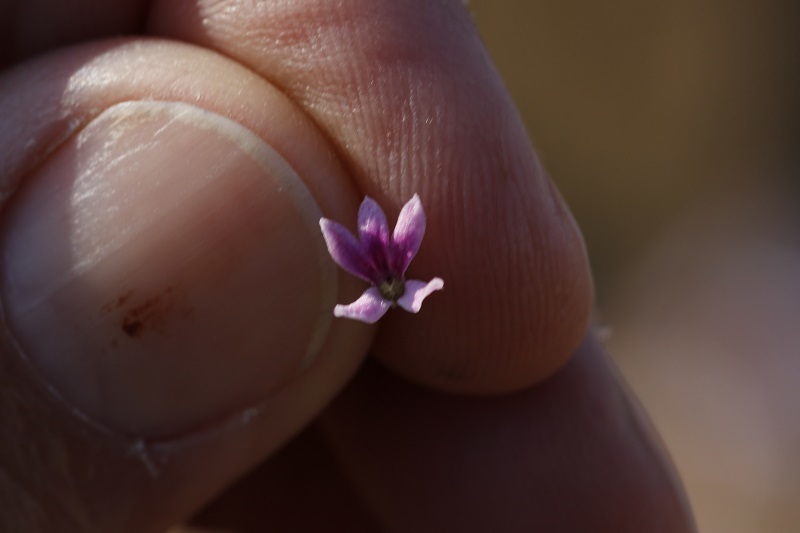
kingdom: Plantae
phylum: Tracheophyta
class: Magnoliopsida
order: Asterales
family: Campanulaceae
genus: Cyphia
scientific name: Cyphia stenopetala
